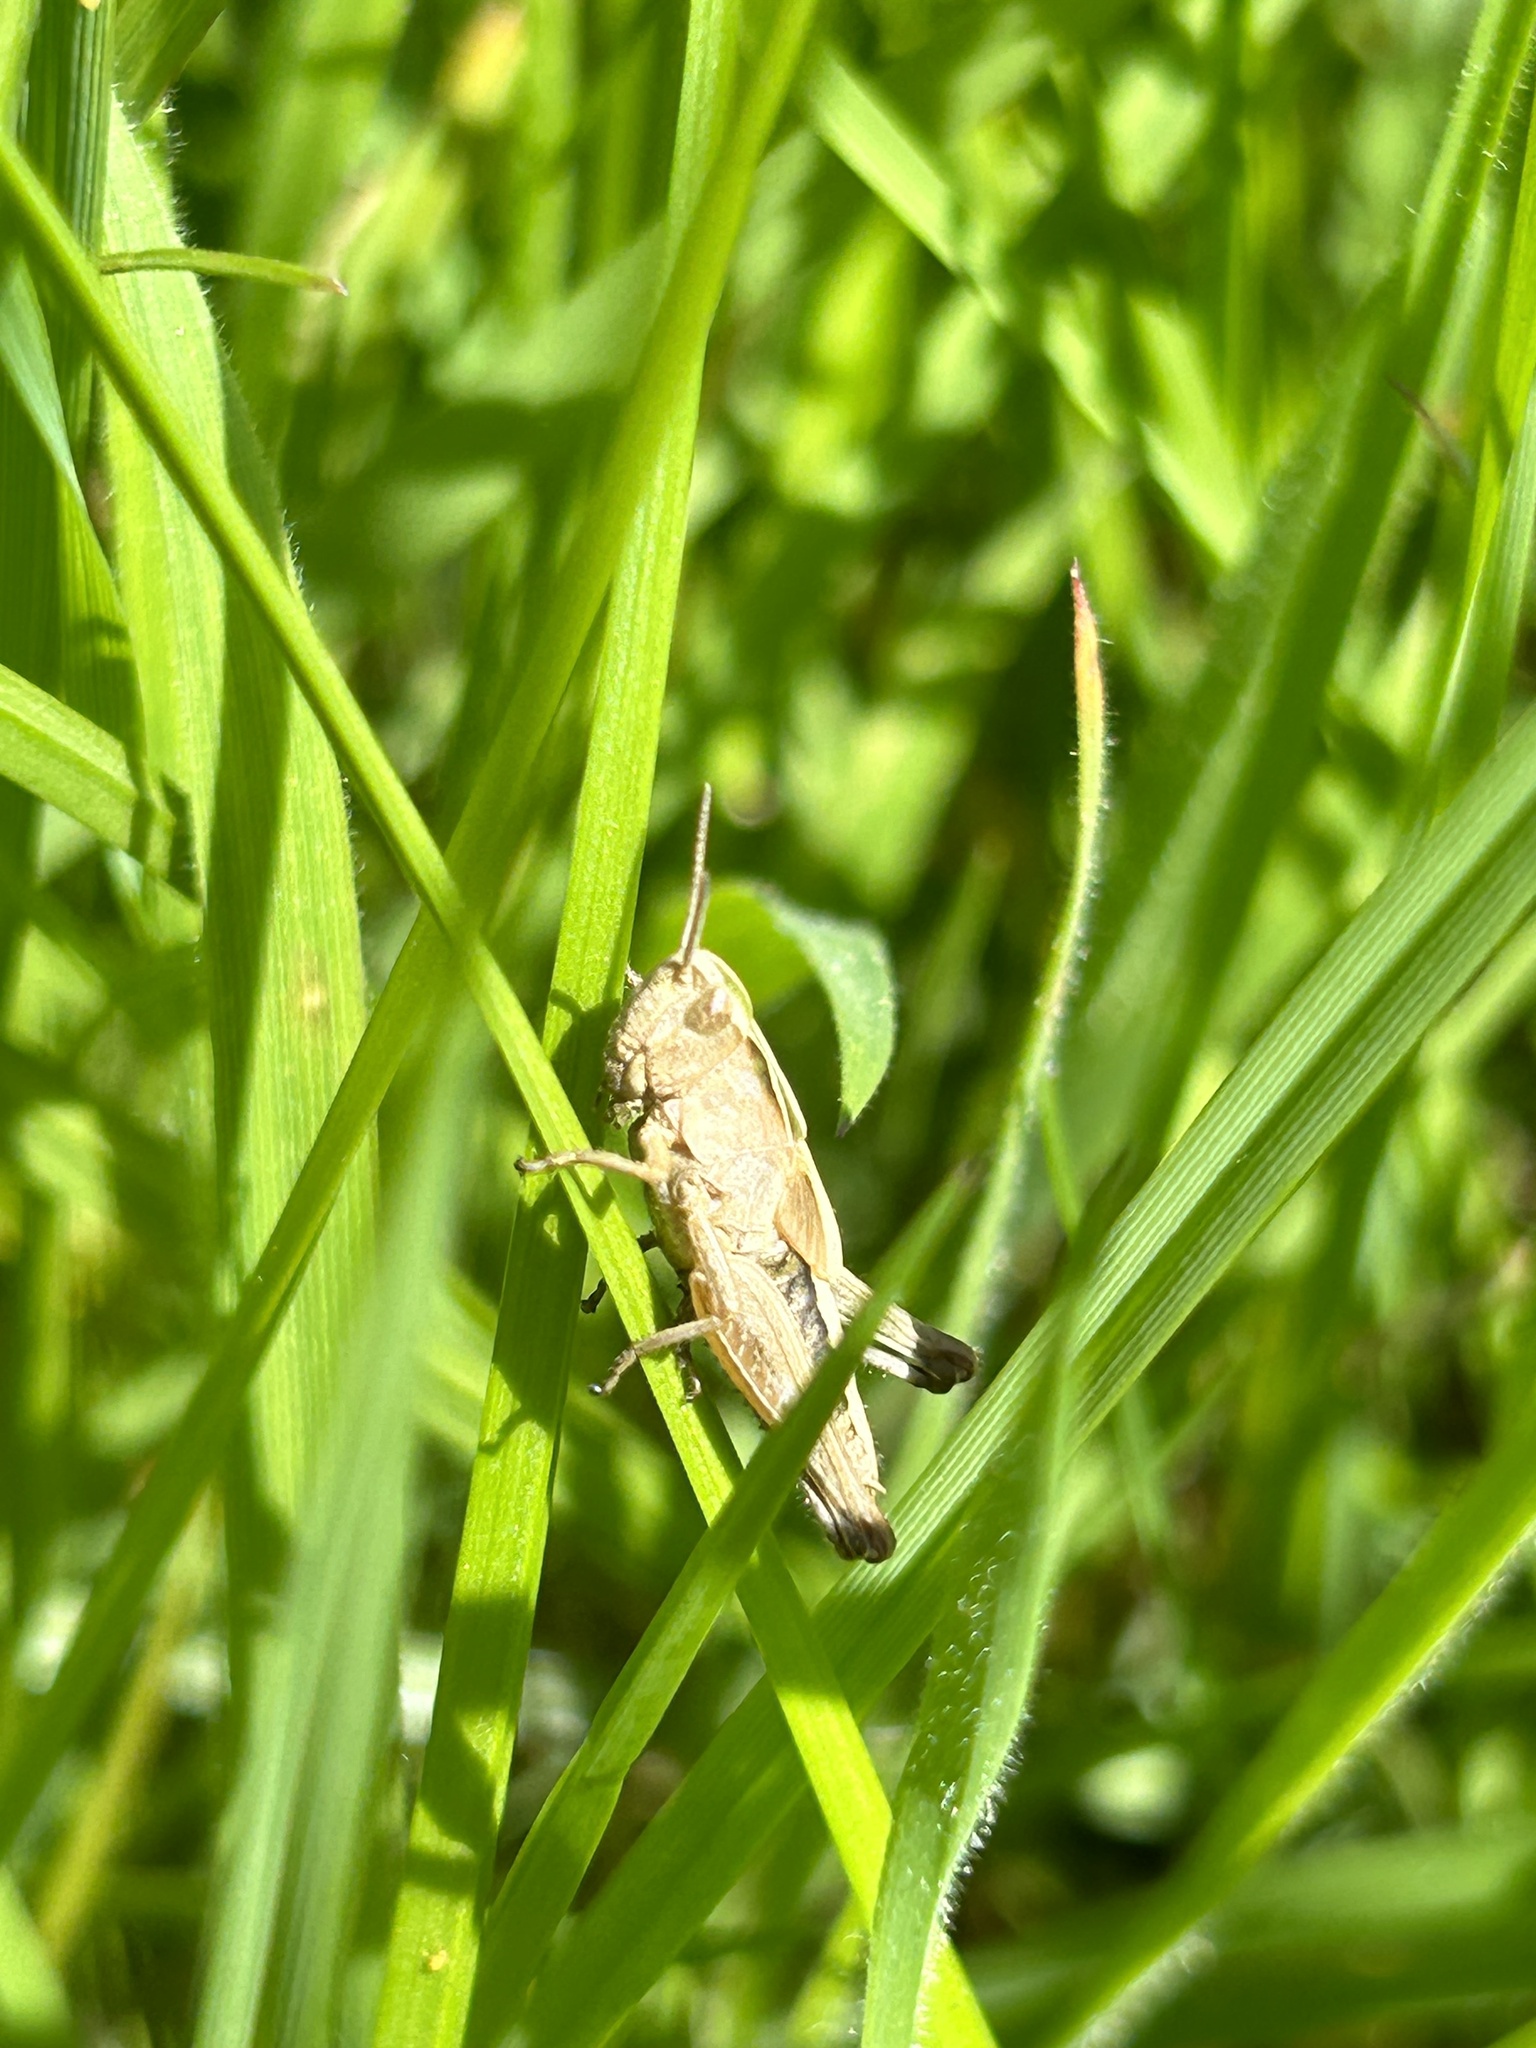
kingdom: Animalia
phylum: Arthropoda
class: Insecta
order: Orthoptera
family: Acrididae
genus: Omocestus
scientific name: Omocestus viridulus
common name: Common green grasshopper
